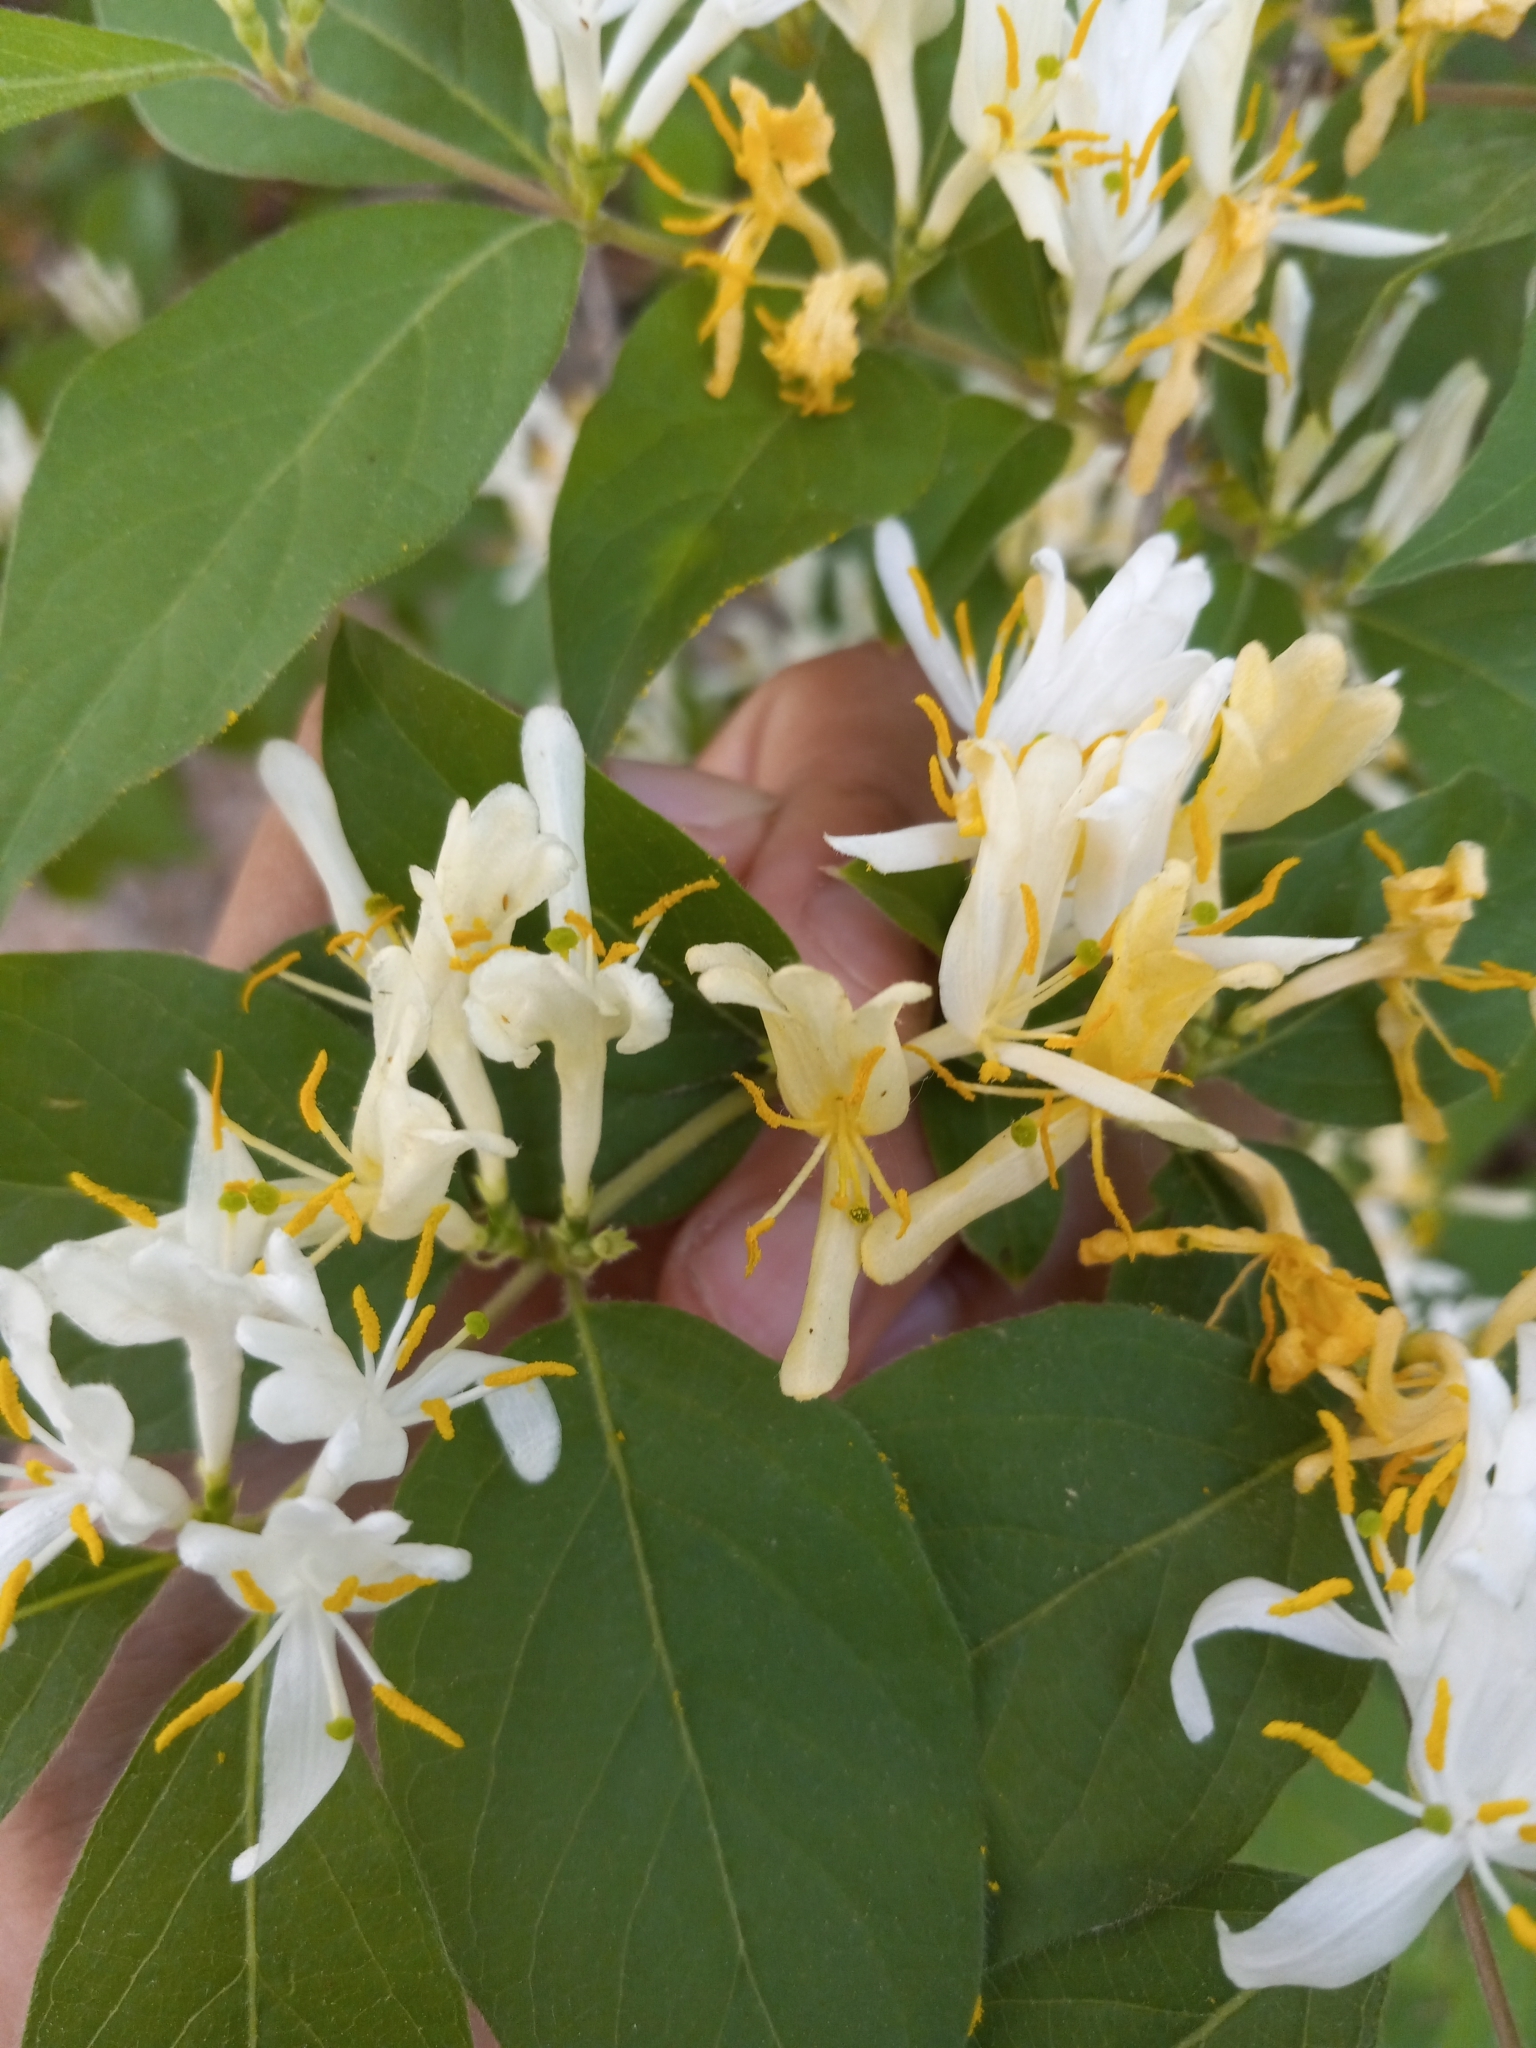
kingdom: Plantae
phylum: Tracheophyta
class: Magnoliopsida
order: Dipsacales
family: Caprifoliaceae
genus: Lonicera
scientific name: Lonicera maackii
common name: Amur honeysuckle
